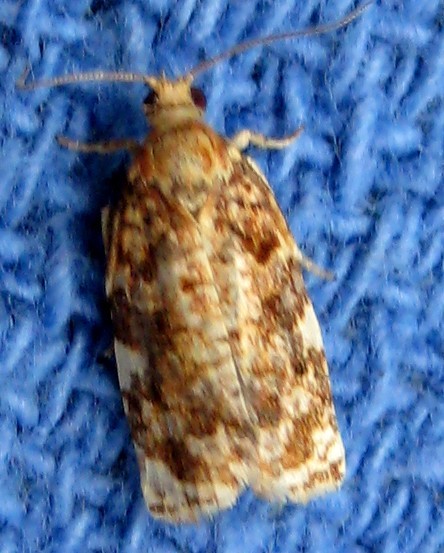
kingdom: Animalia
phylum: Arthropoda
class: Insecta
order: Lepidoptera
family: Tortricidae
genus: Archips
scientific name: Archips argyrospila
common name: Fruit-tree leafroller moth
